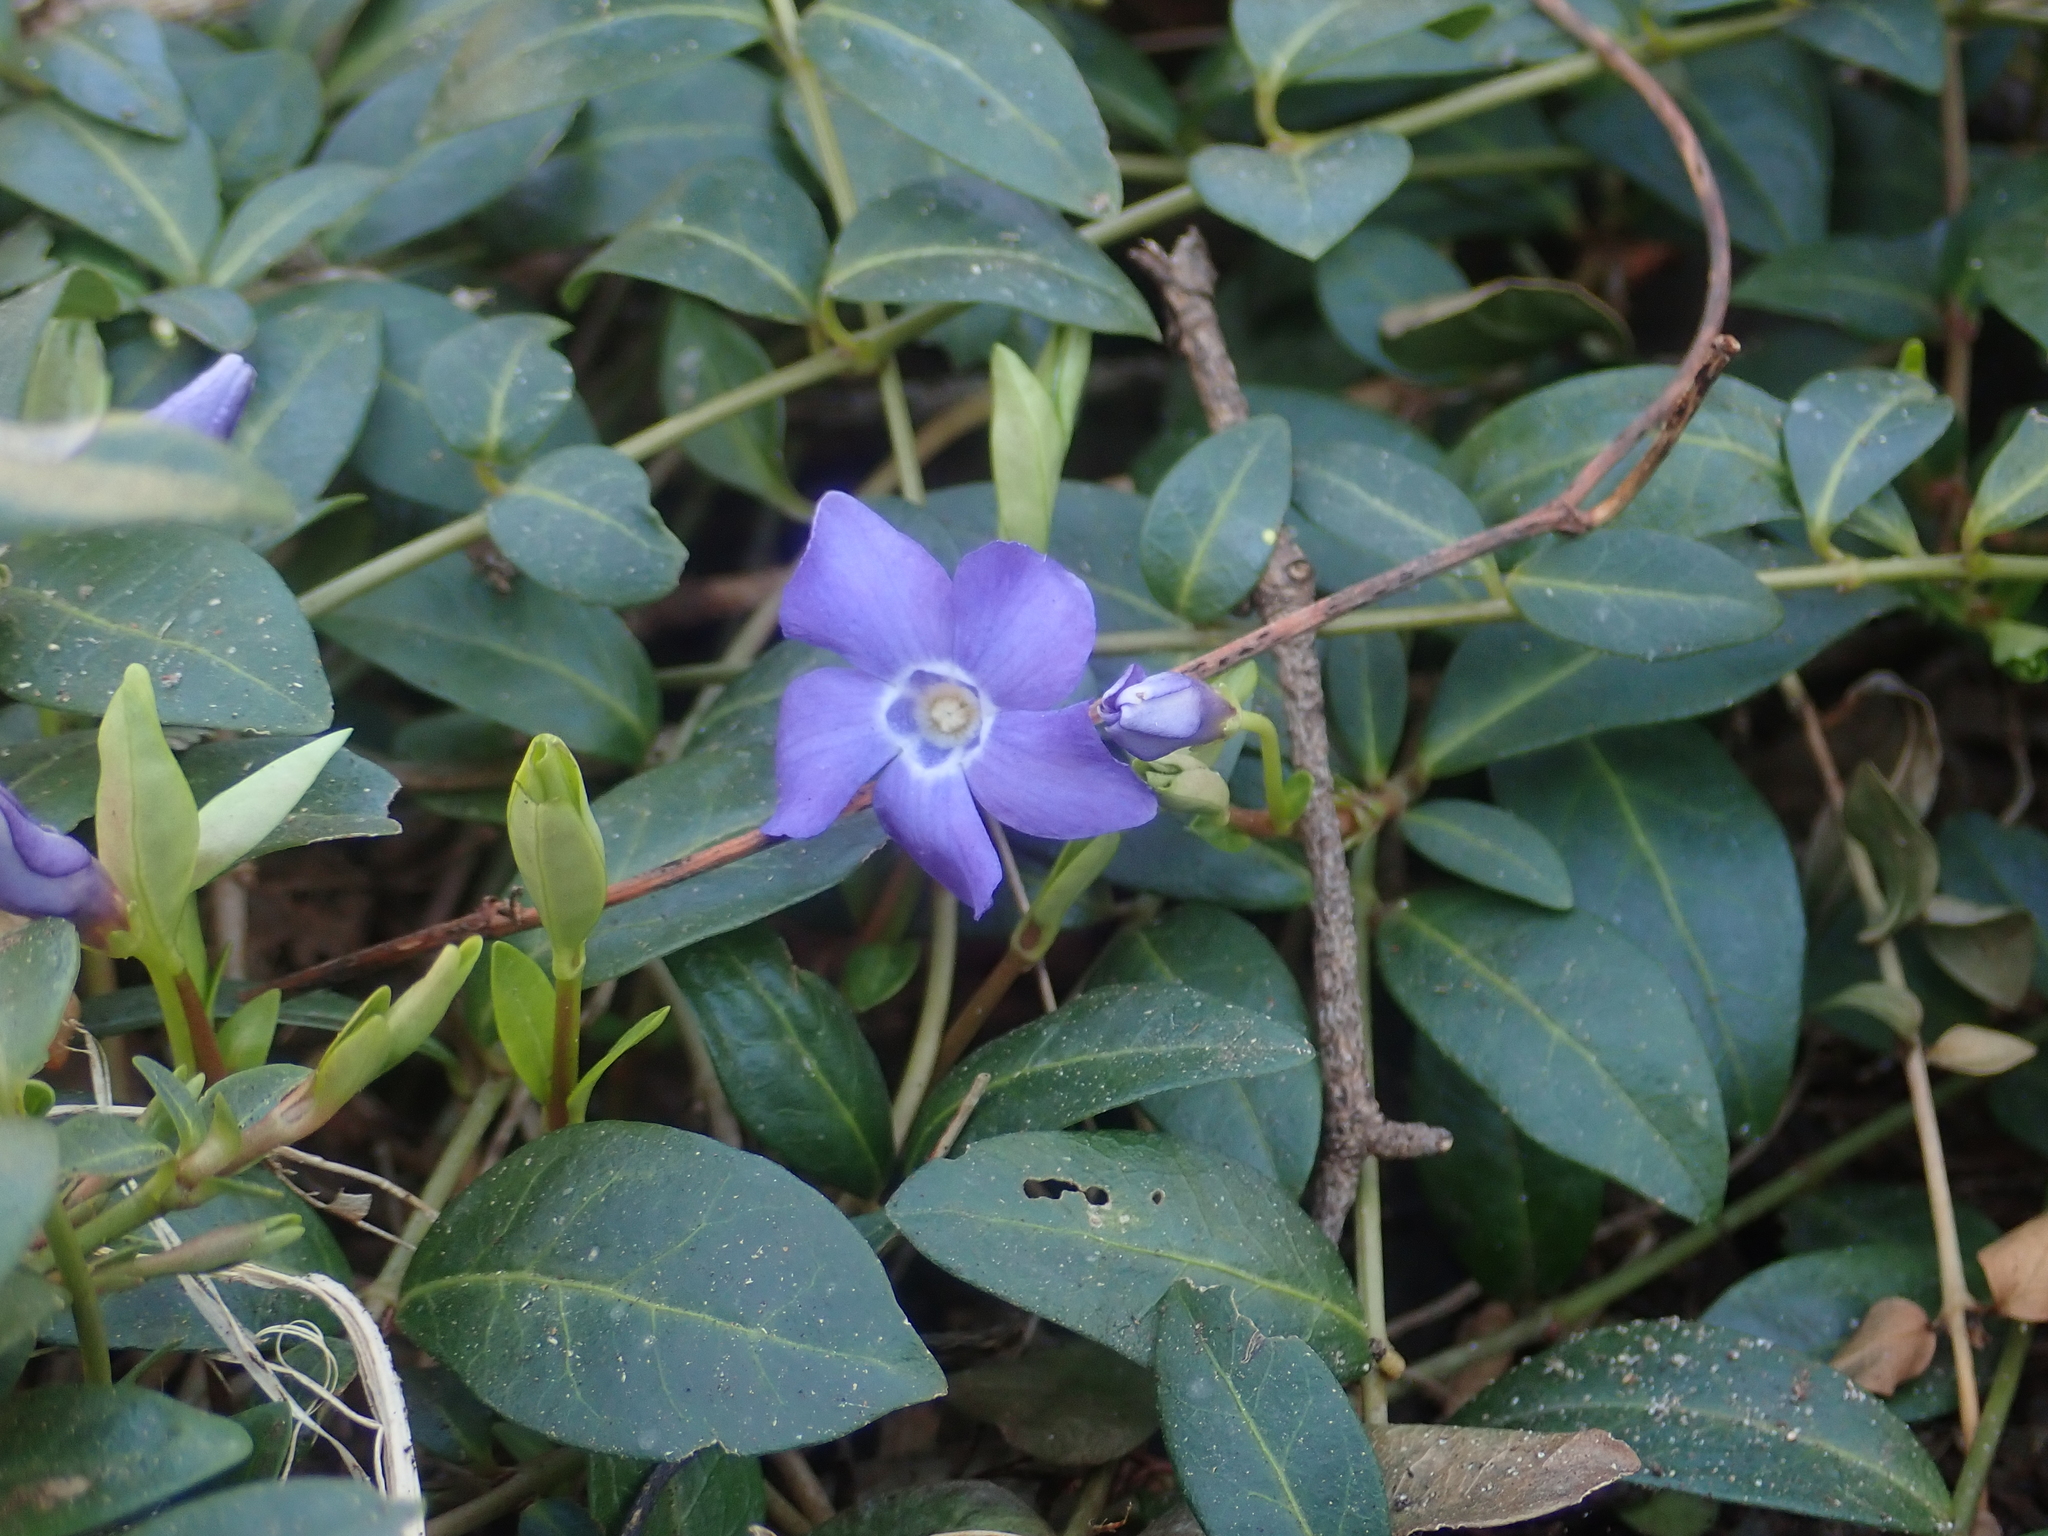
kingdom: Plantae
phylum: Tracheophyta
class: Magnoliopsida
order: Gentianales
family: Apocynaceae
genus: Vinca
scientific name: Vinca minor
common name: Lesser periwinkle
